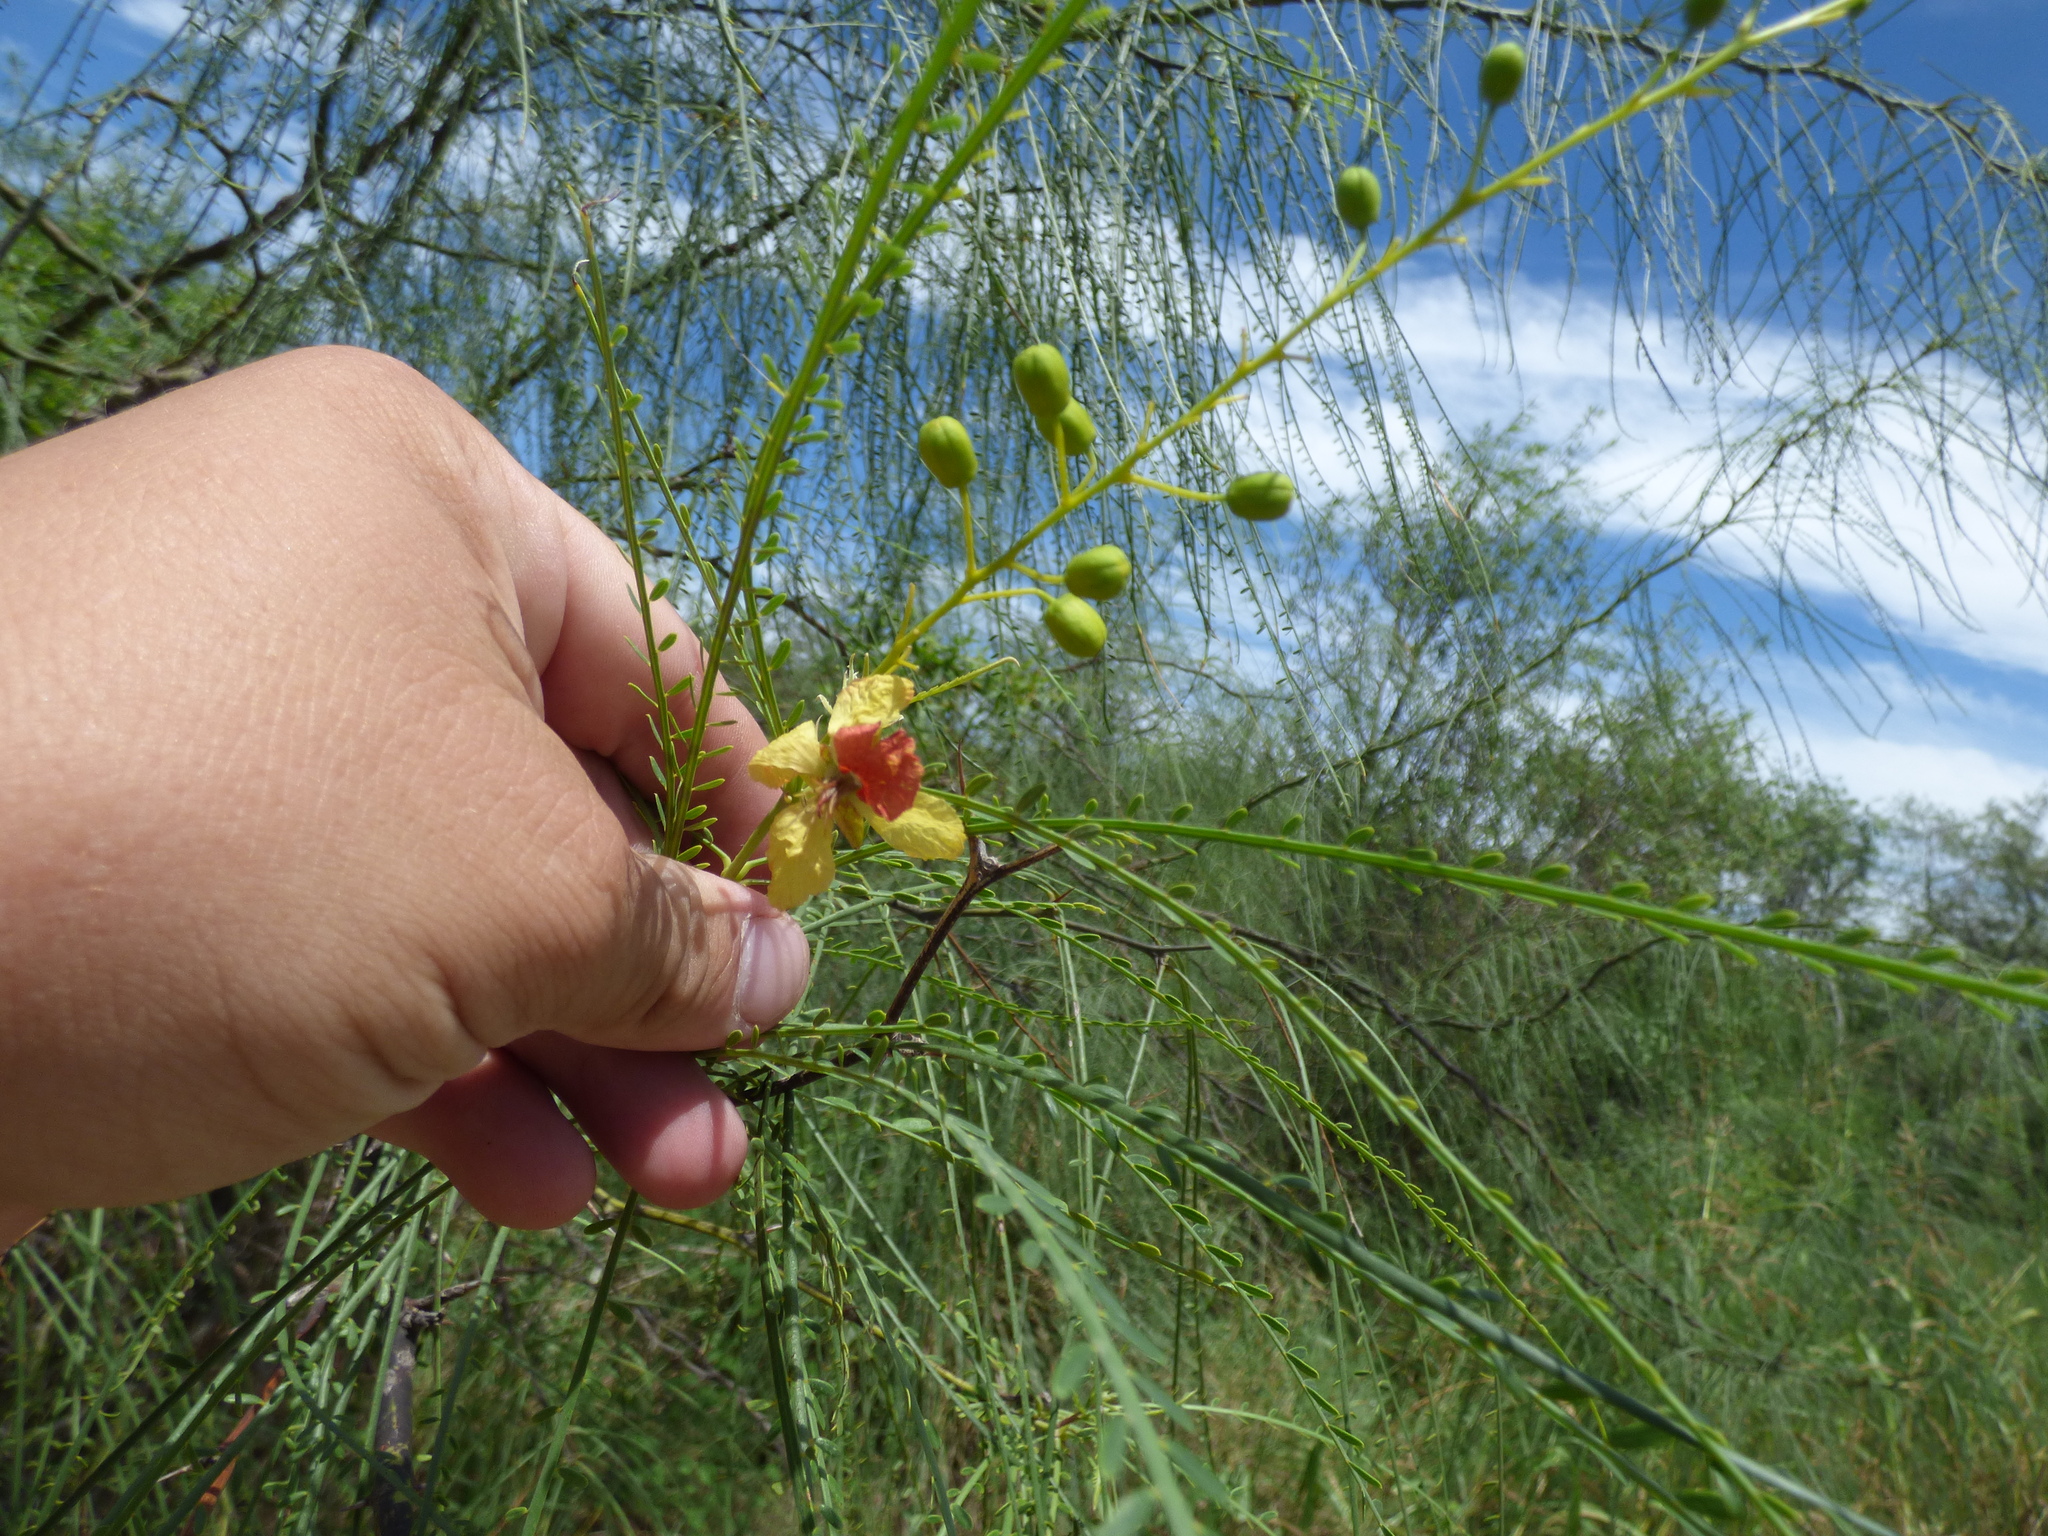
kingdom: Plantae
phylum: Tracheophyta
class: Magnoliopsida
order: Fabales
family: Fabaceae
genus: Parkinsonia
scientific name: Parkinsonia aculeata
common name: Jerusalem thorn
